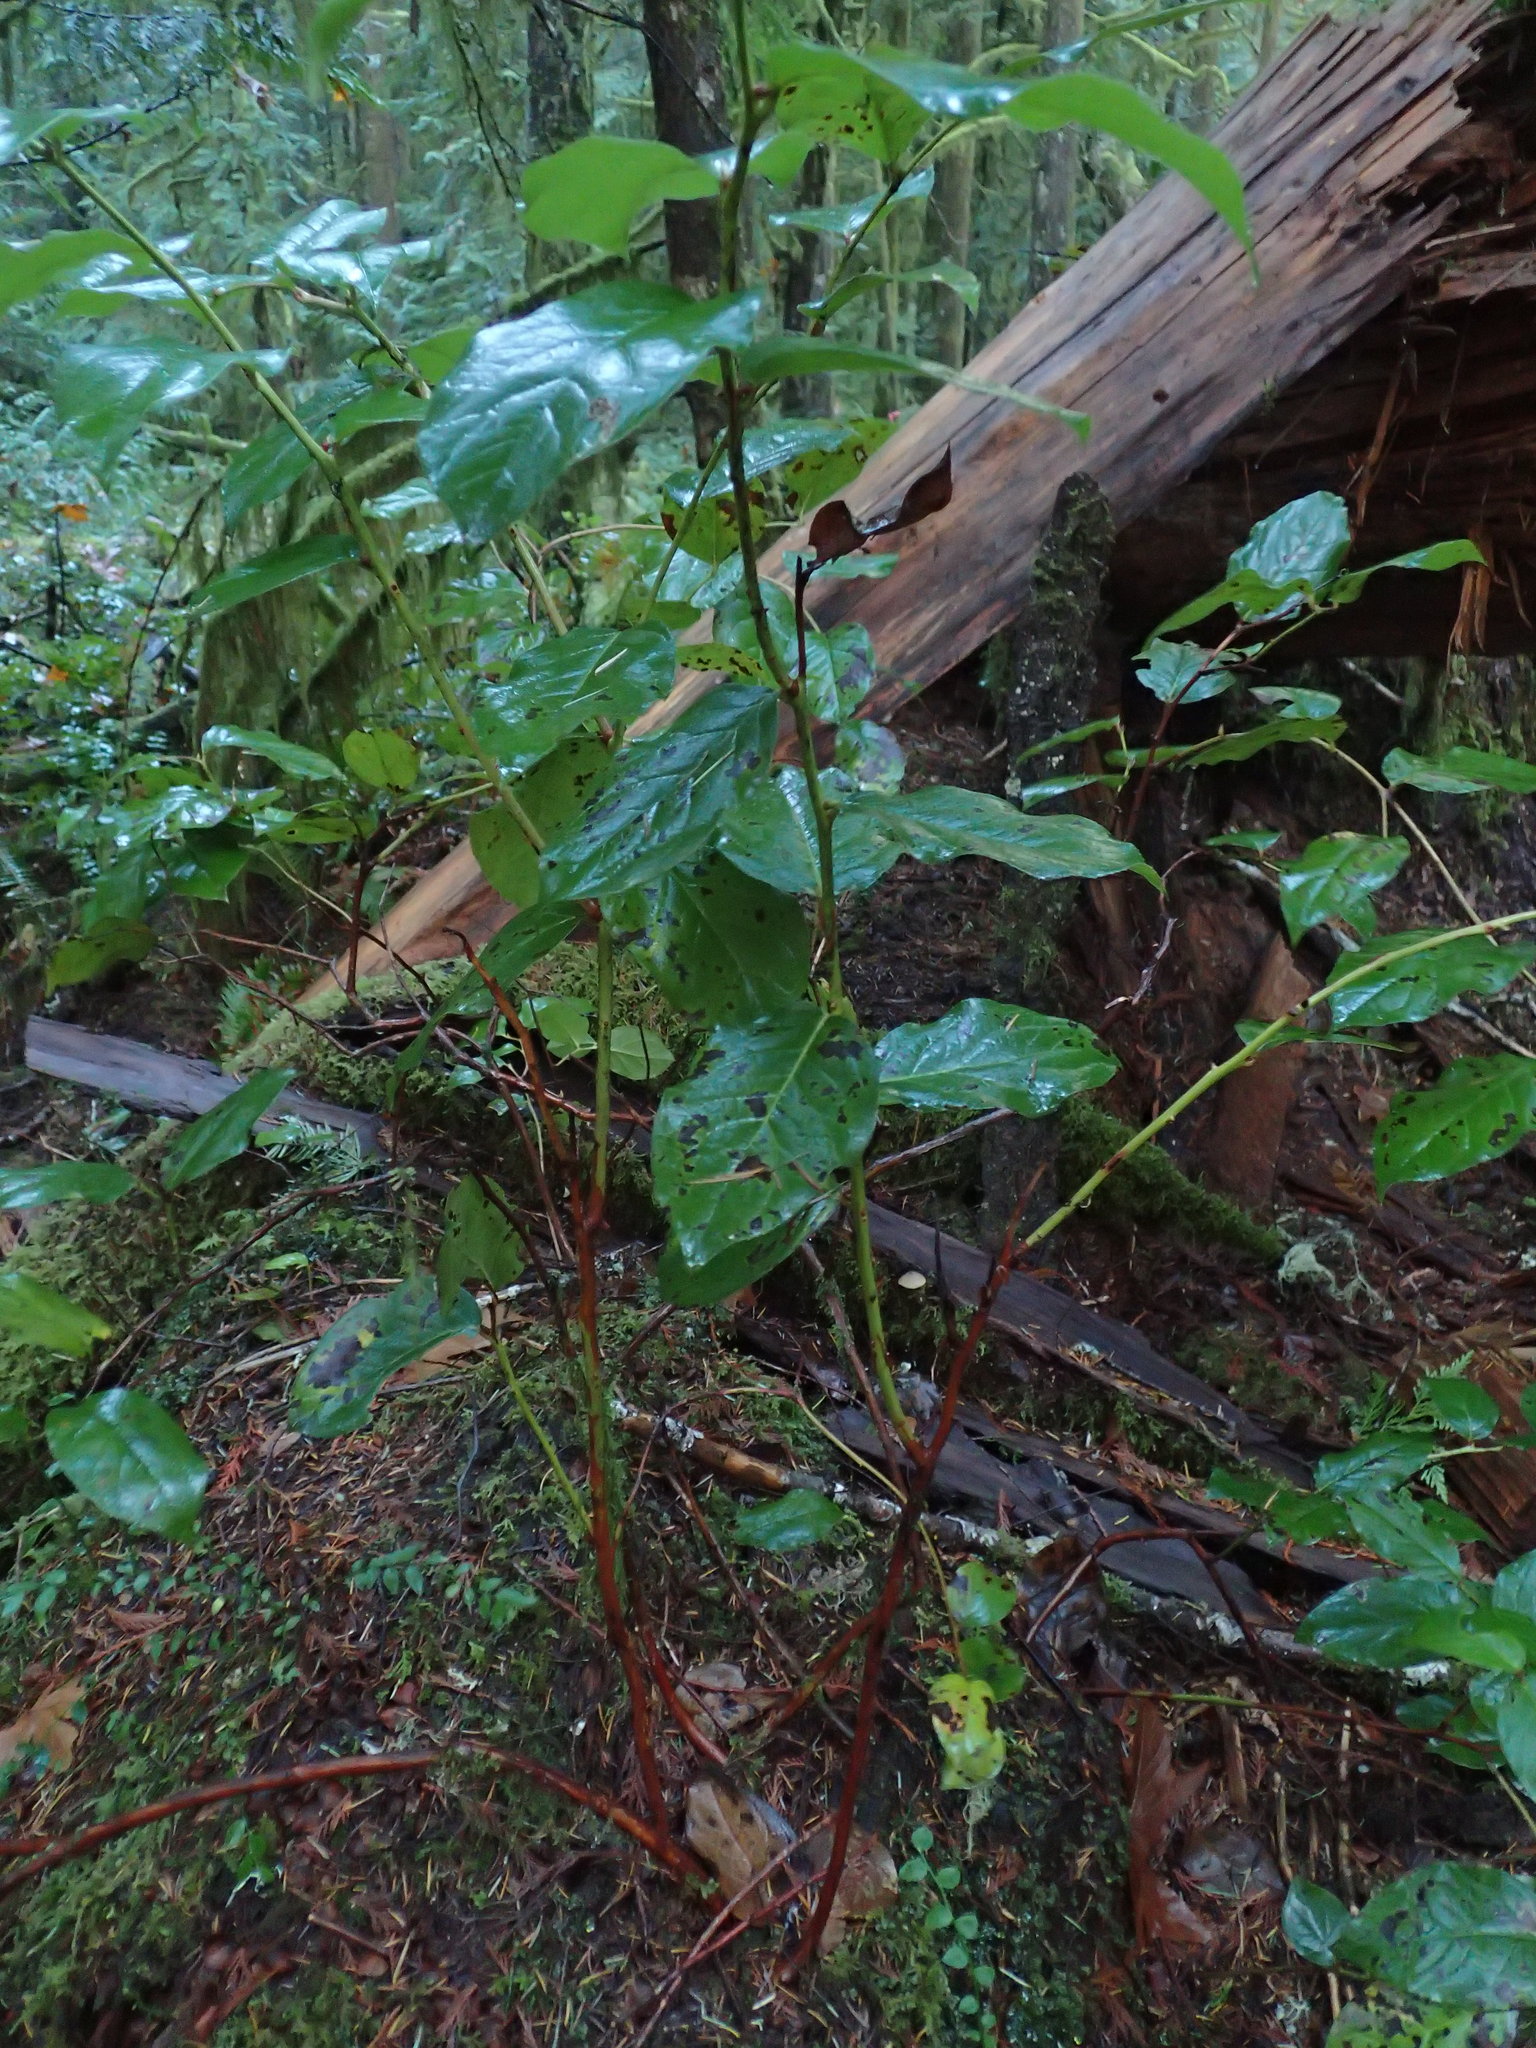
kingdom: Plantae
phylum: Tracheophyta
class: Magnoliopsida
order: Ericales
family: Ericaceae
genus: Arbutus
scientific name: Arbutus menziesii
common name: Pacific madrone
